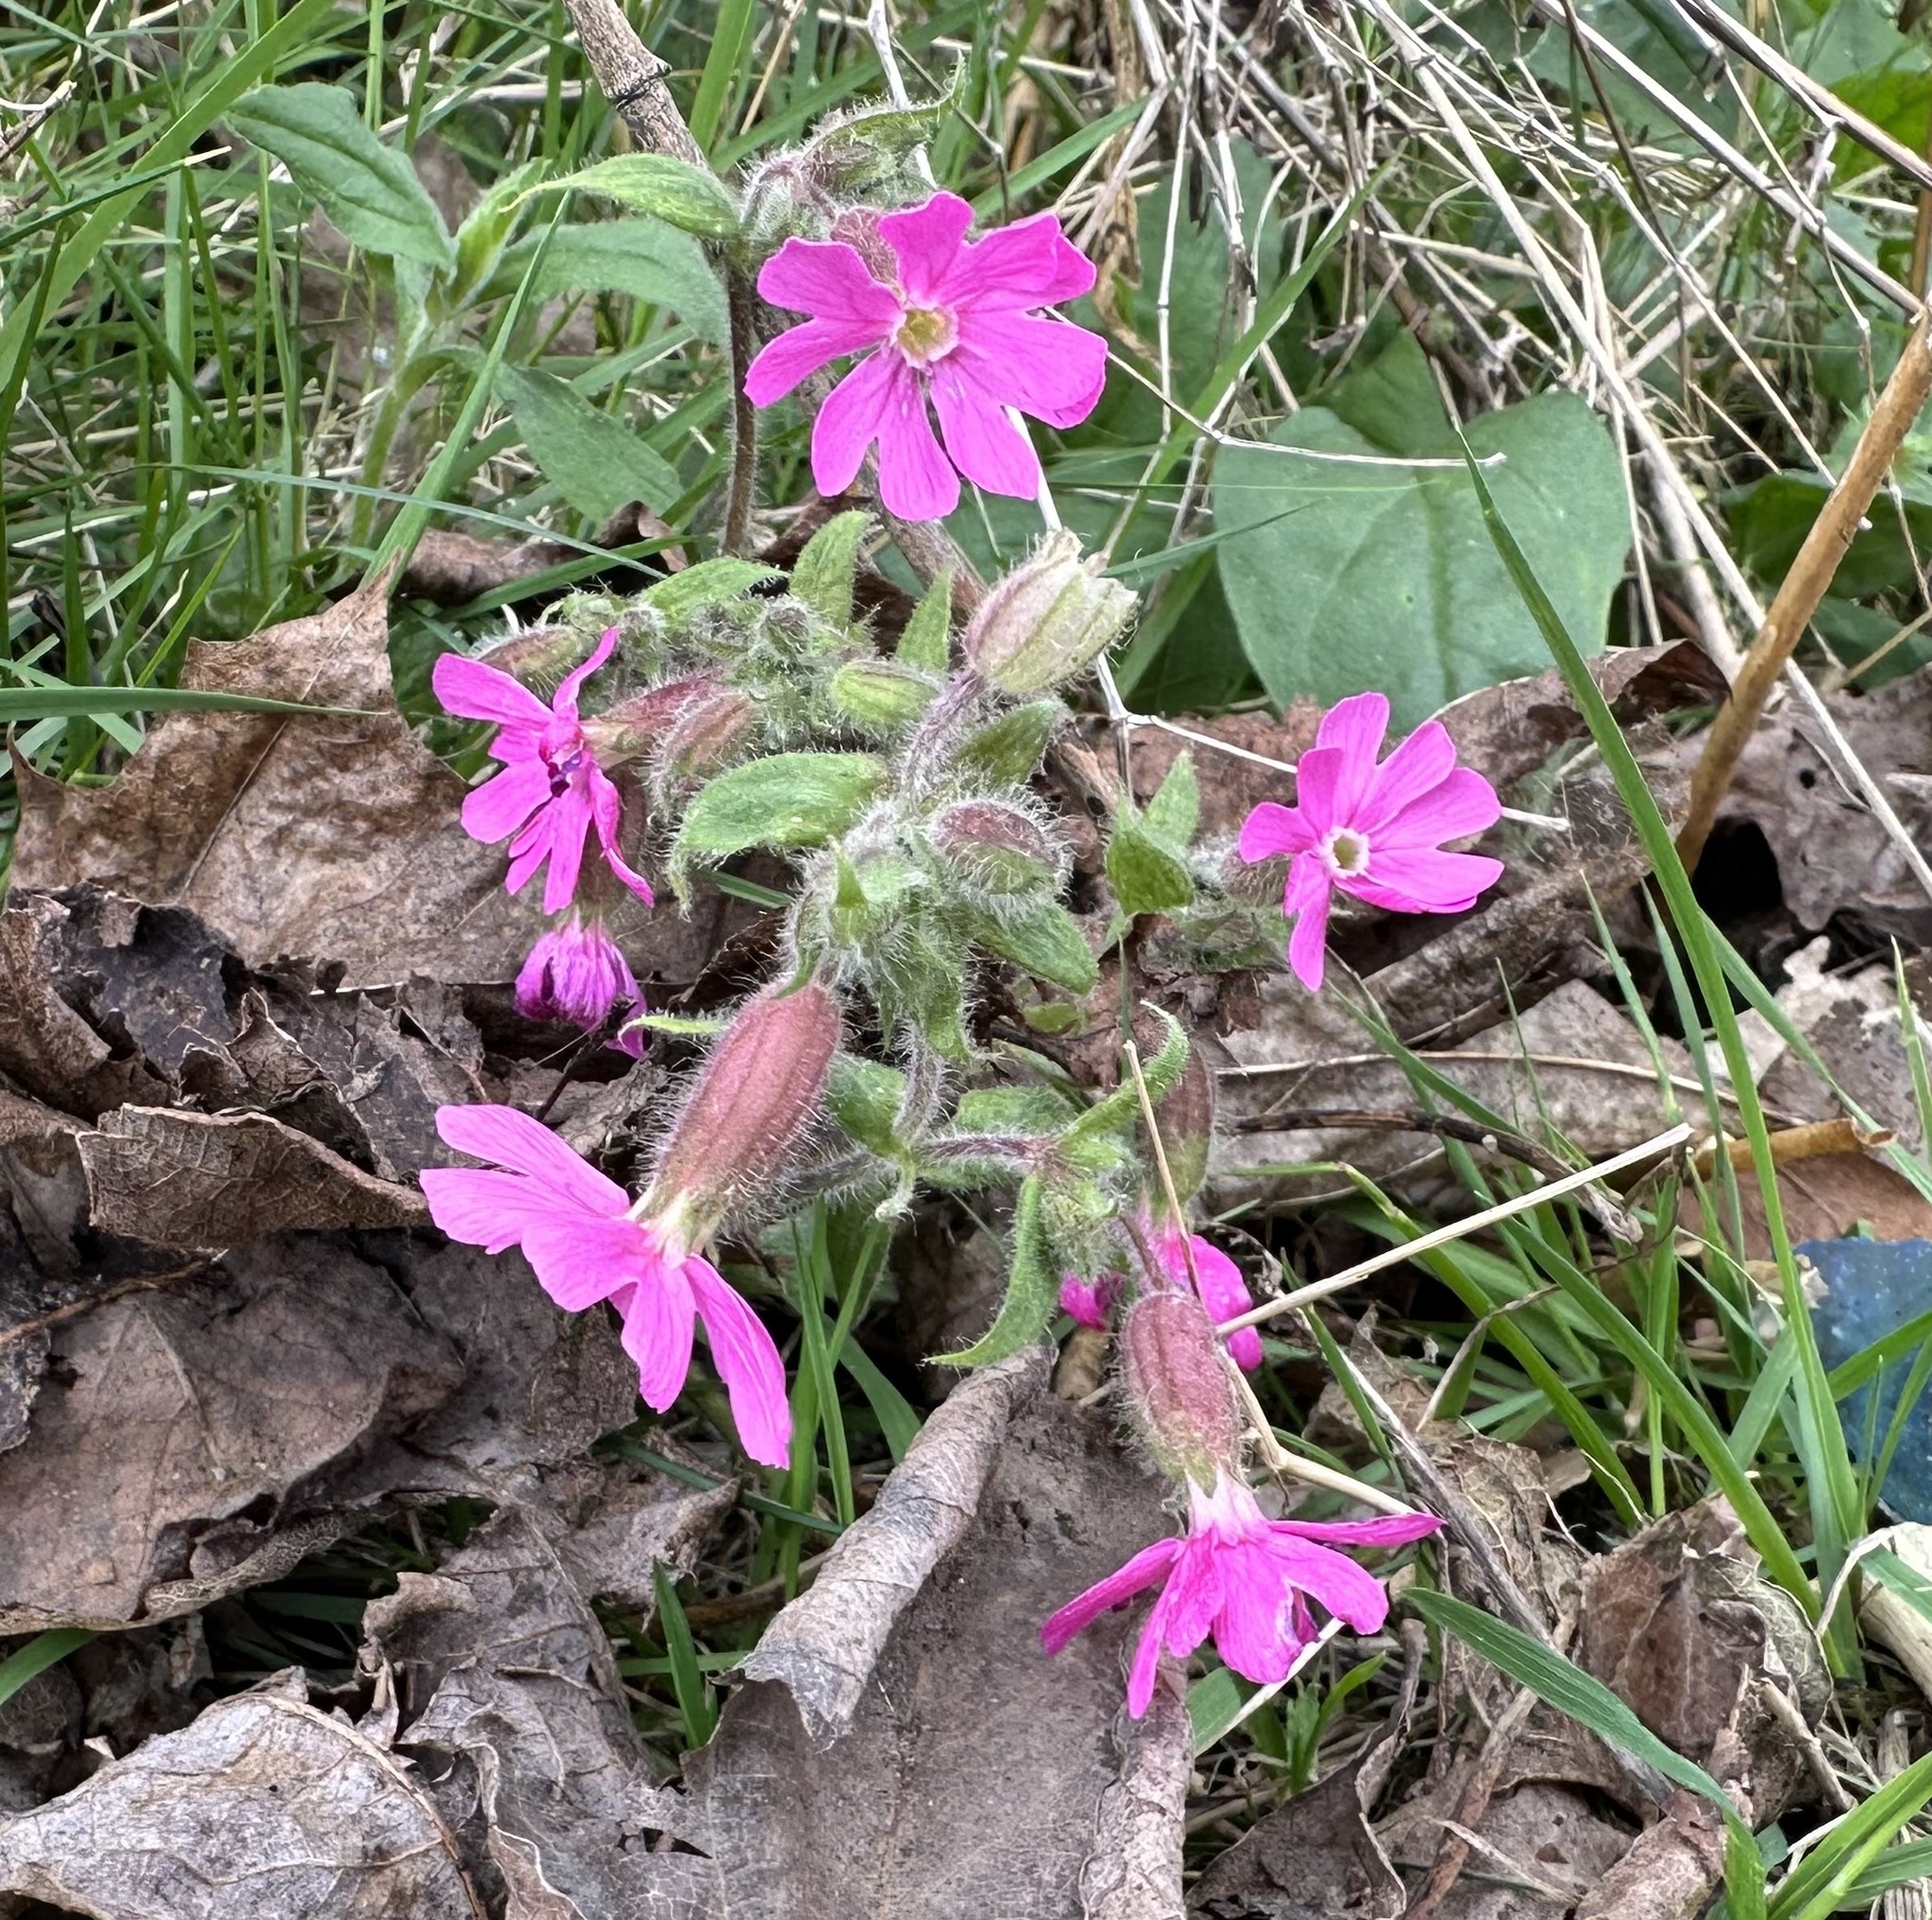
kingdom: Plantae
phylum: Tracheophyta
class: Magnoliopsida
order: Caryophyllales
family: Caryophyllaceae
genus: Silene
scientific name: Silene dioica
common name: Red campion
